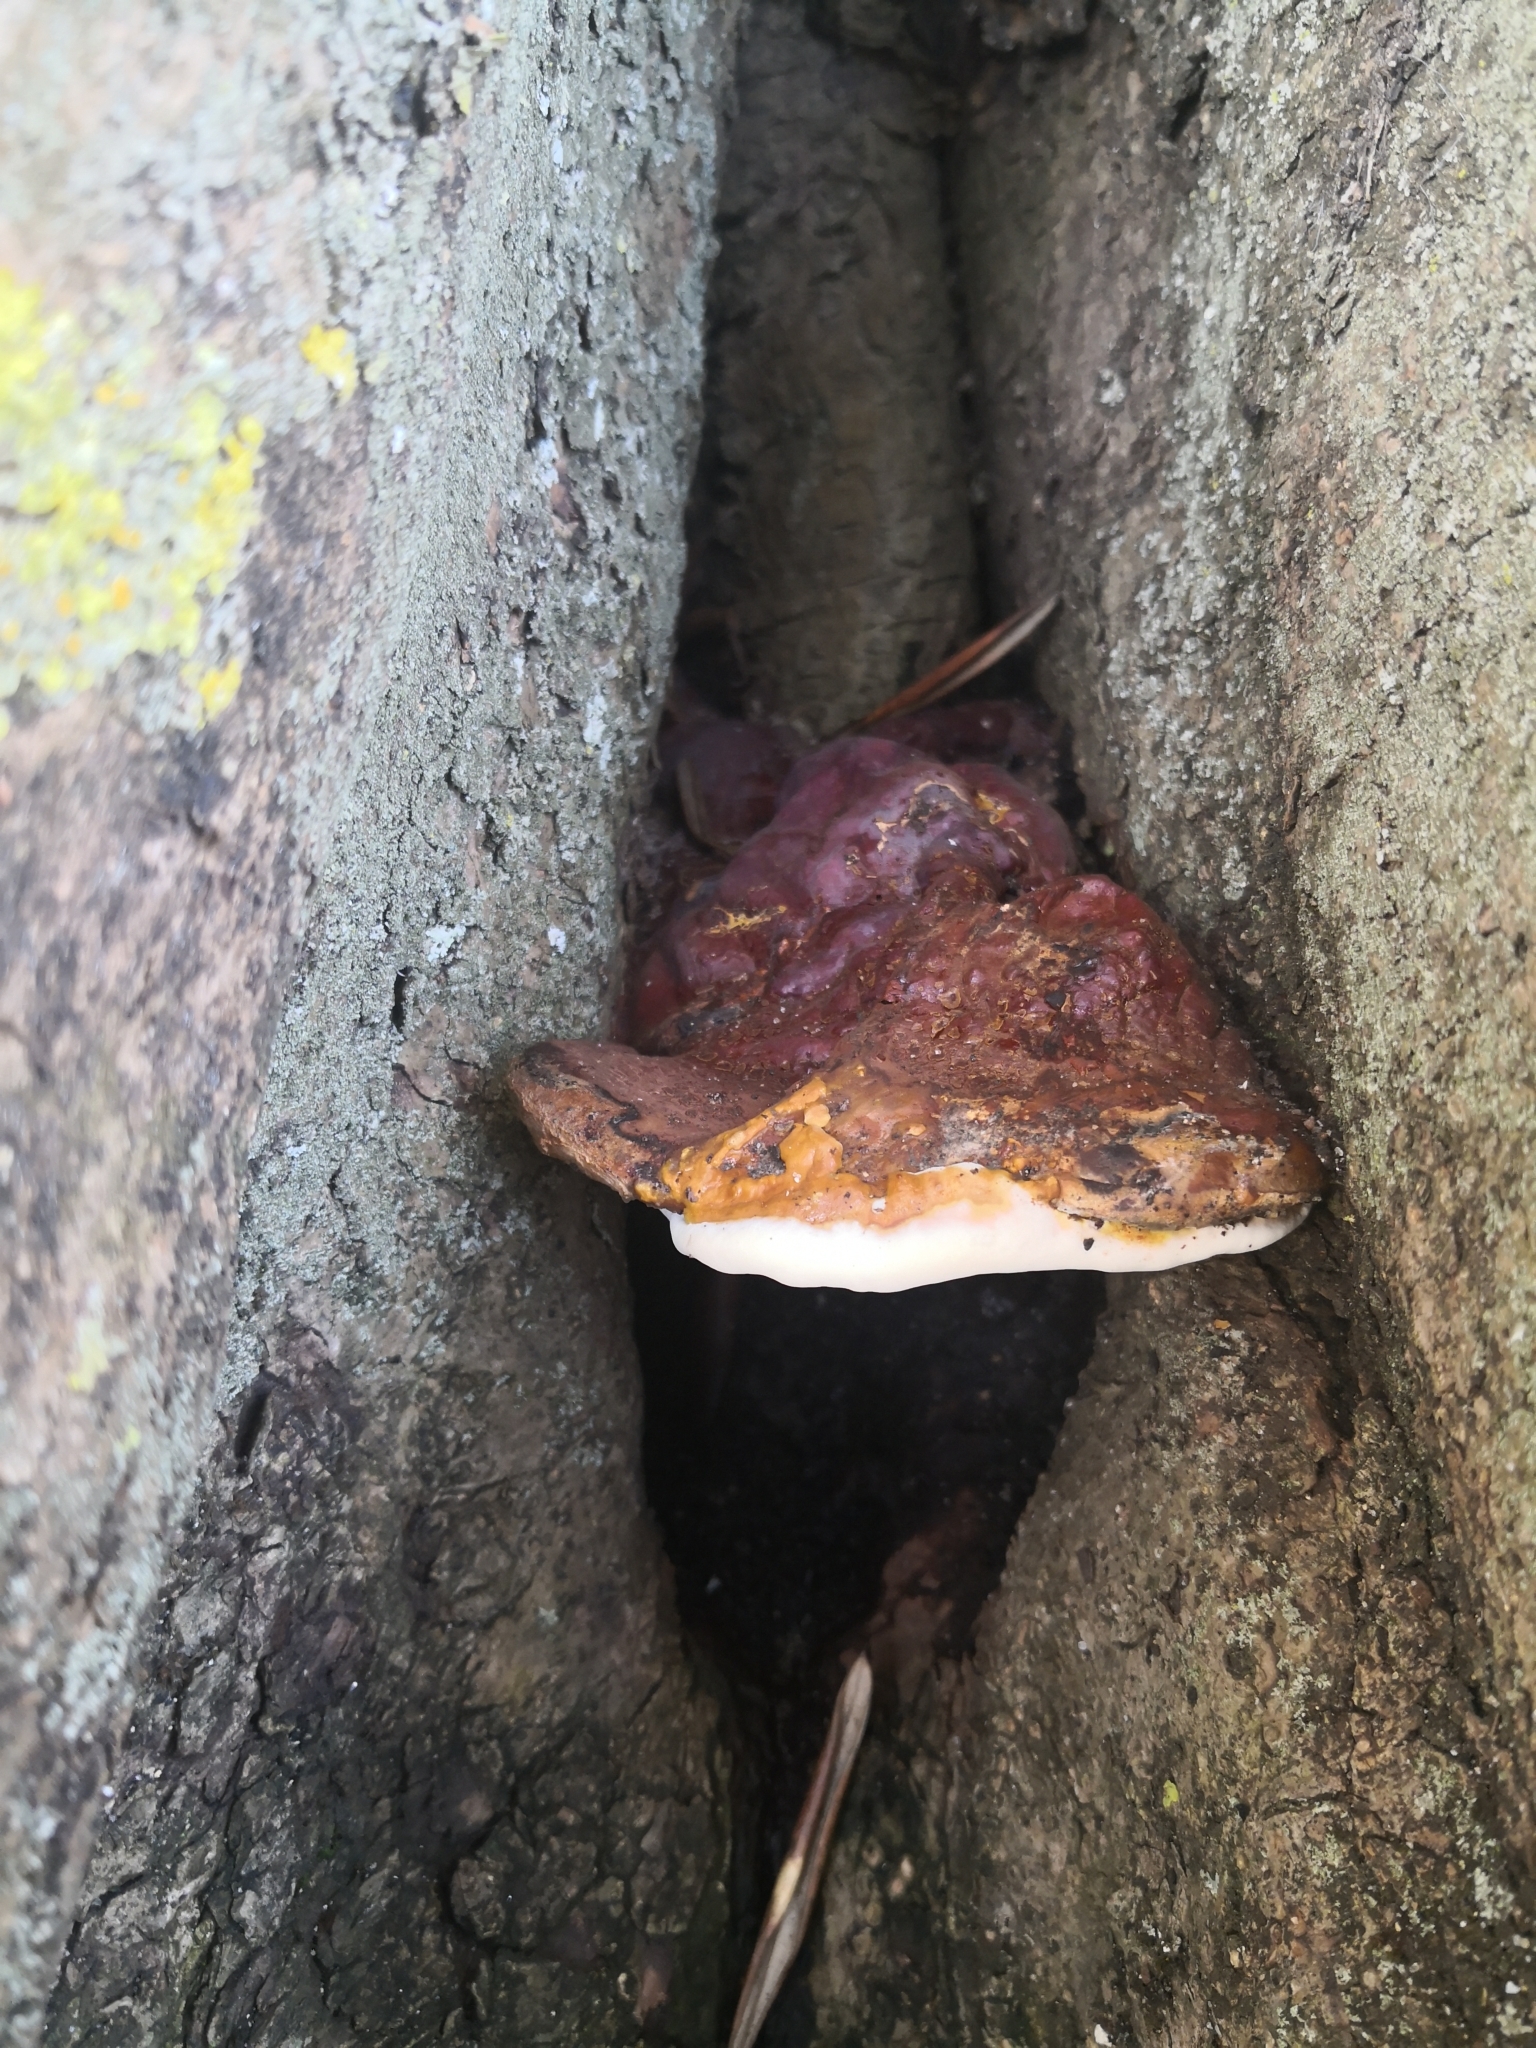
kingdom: Fungi
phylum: Basidiomycota
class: Agaricomycetes
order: Polyporales
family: Polyporaceae
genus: Ganoderma
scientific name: Ganoderma resinaceum
